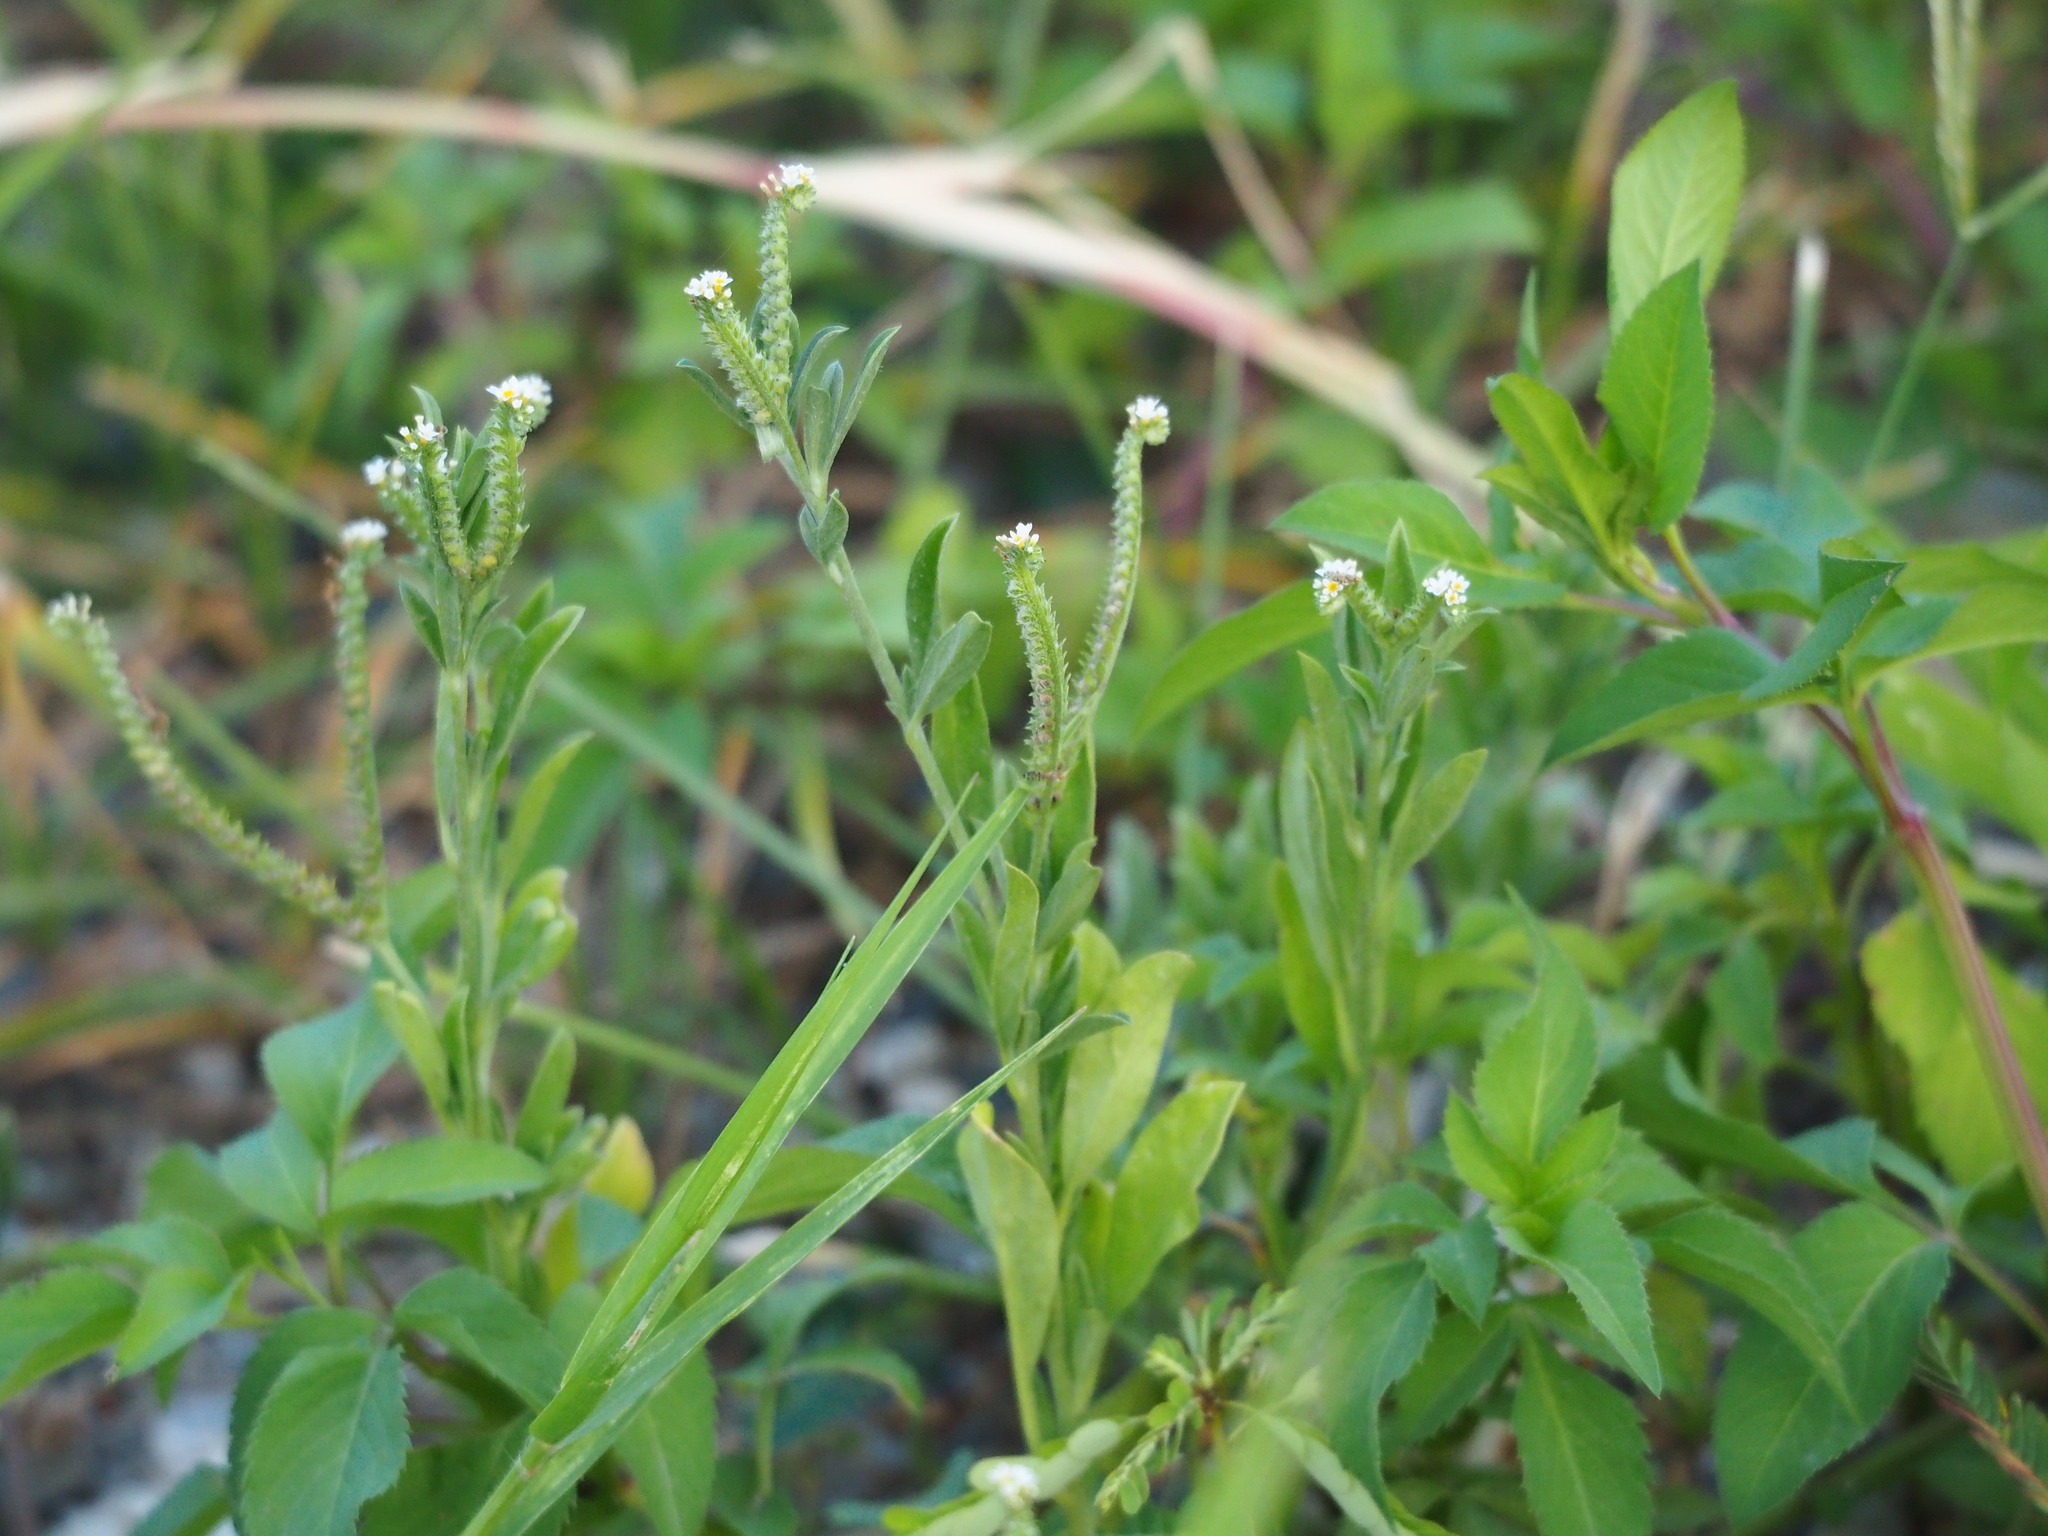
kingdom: Plantae
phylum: Tracheophyta
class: Magnoliopsida
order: Boraginales
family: Heliotropiaceae
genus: Euploca
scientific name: Euploca procumbens
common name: Fourspike heliotrope
